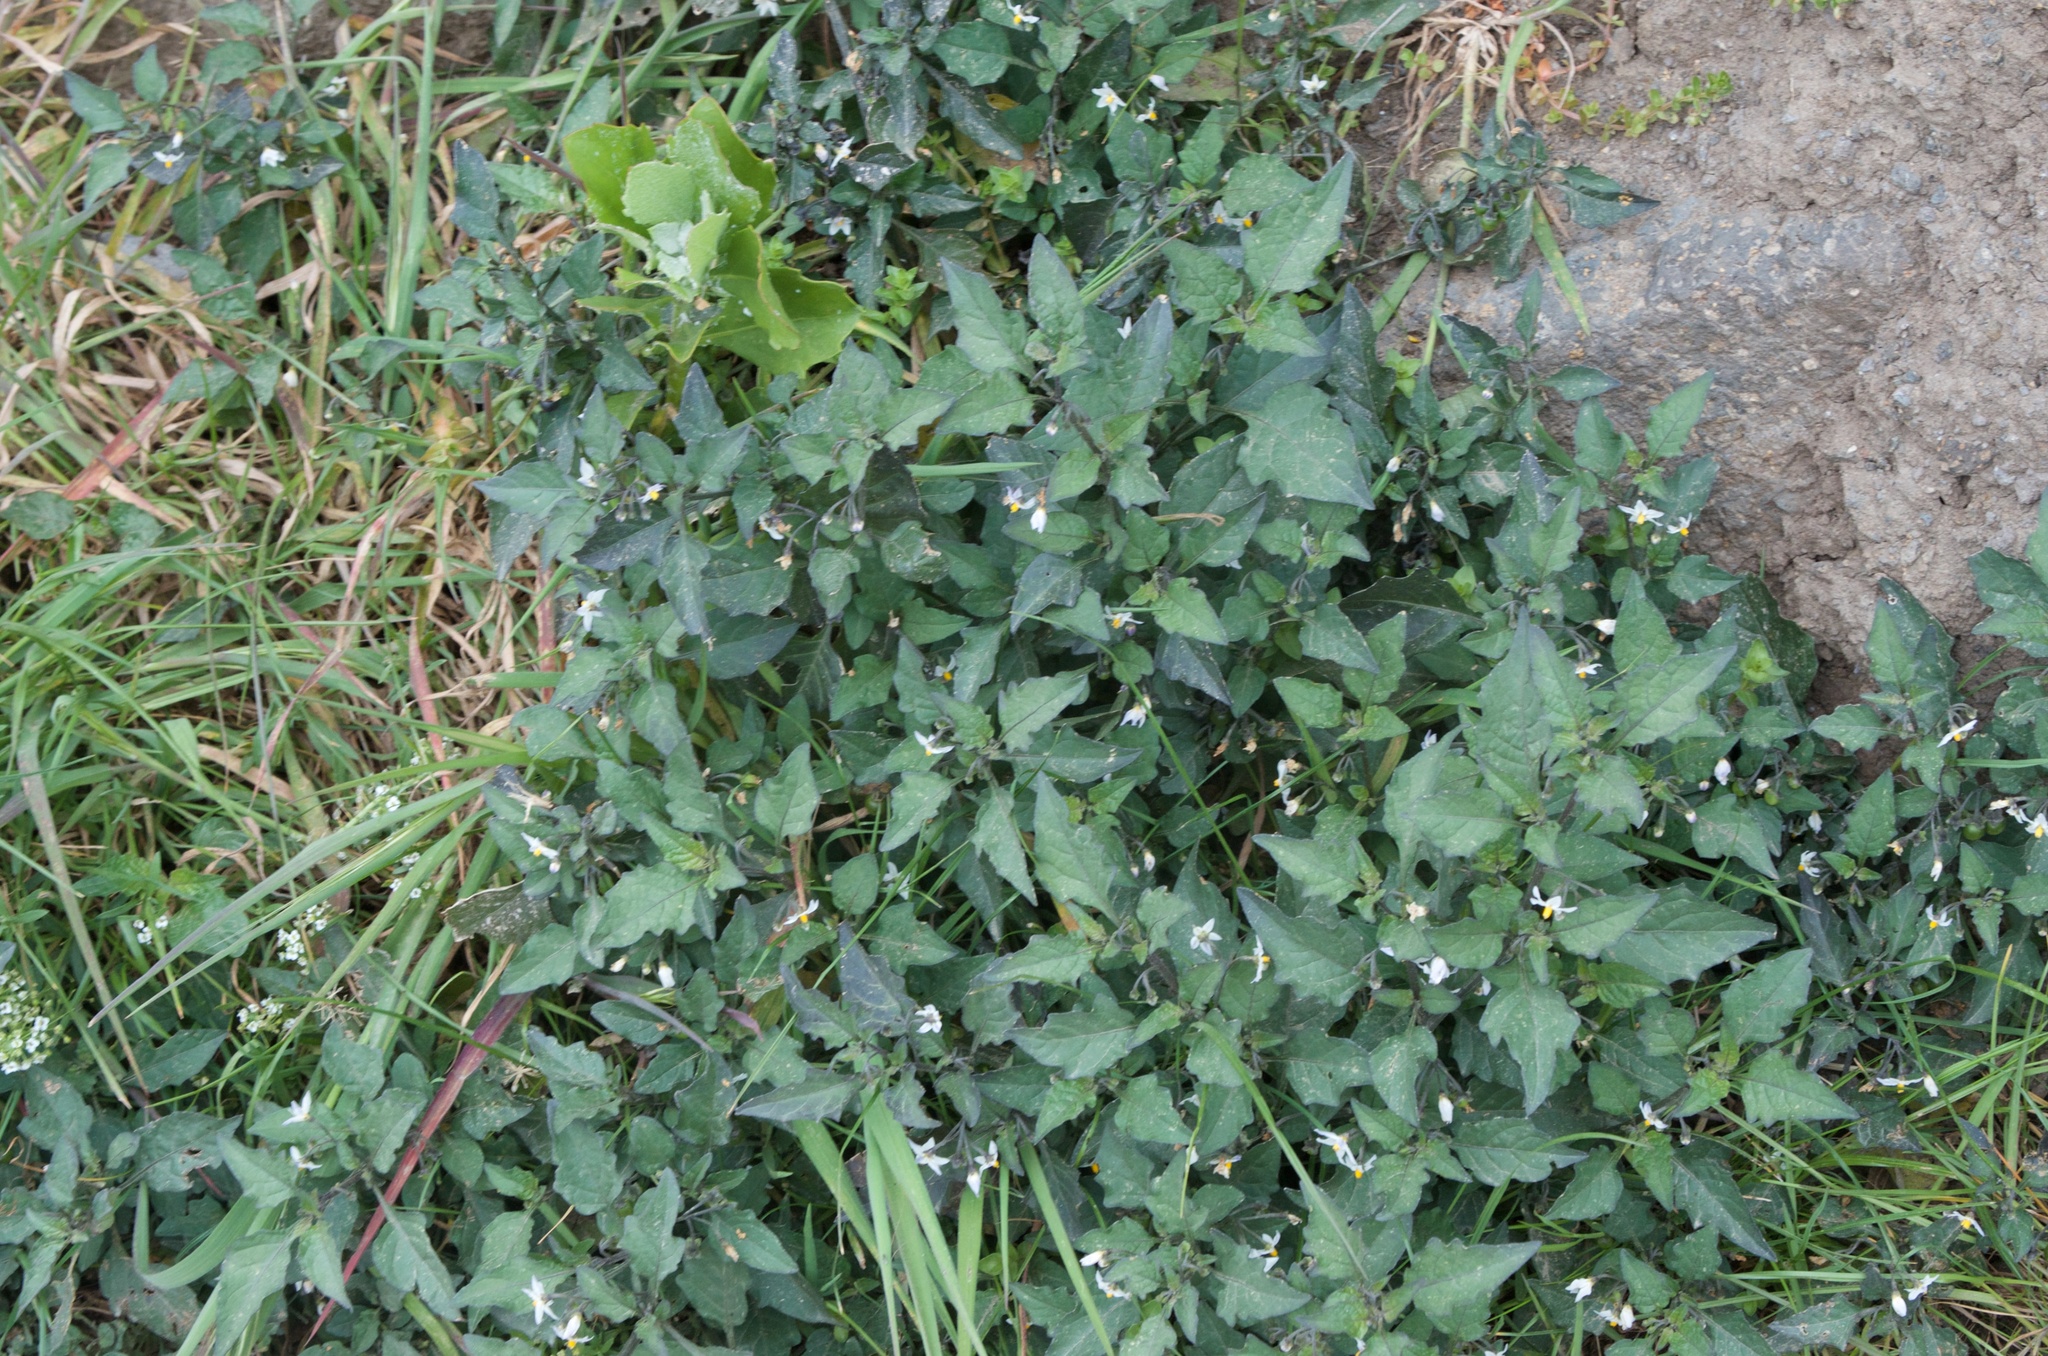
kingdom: Plantae
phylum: Tracheophyta
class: Magnoliopsida
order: Solanales
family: Solanaceae
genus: Solanum
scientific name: Solanum nigrum
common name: Black nightshade
